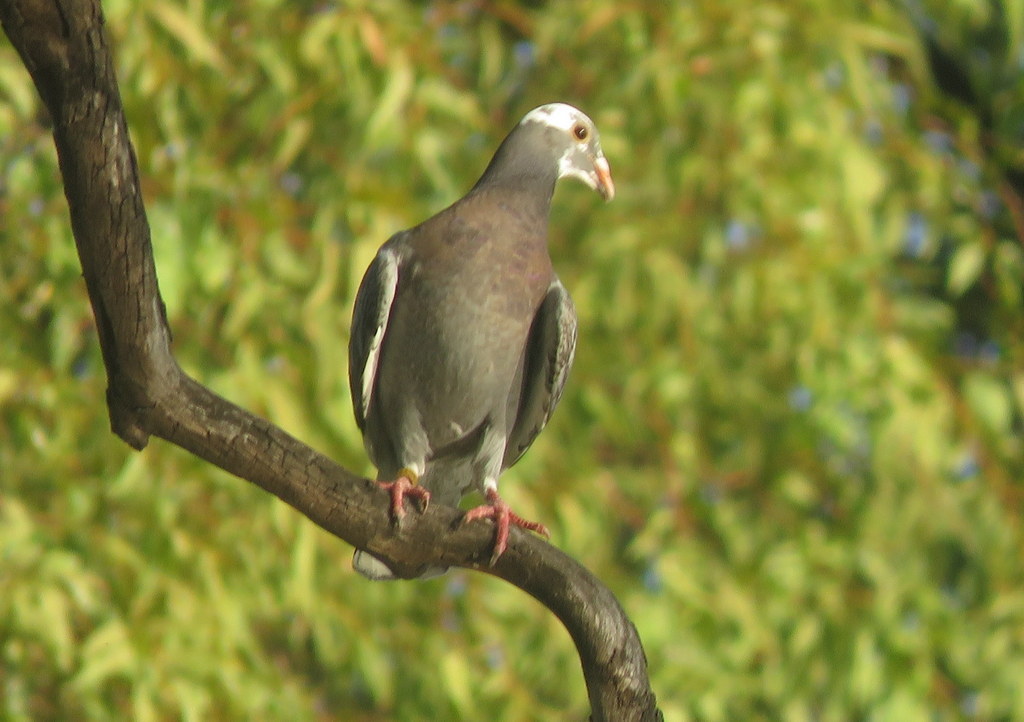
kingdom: Animalia
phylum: Chordata
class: Aves
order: Columbiformes
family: Columbidae
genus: Columba
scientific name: Columba livia
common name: Rock pigeon
